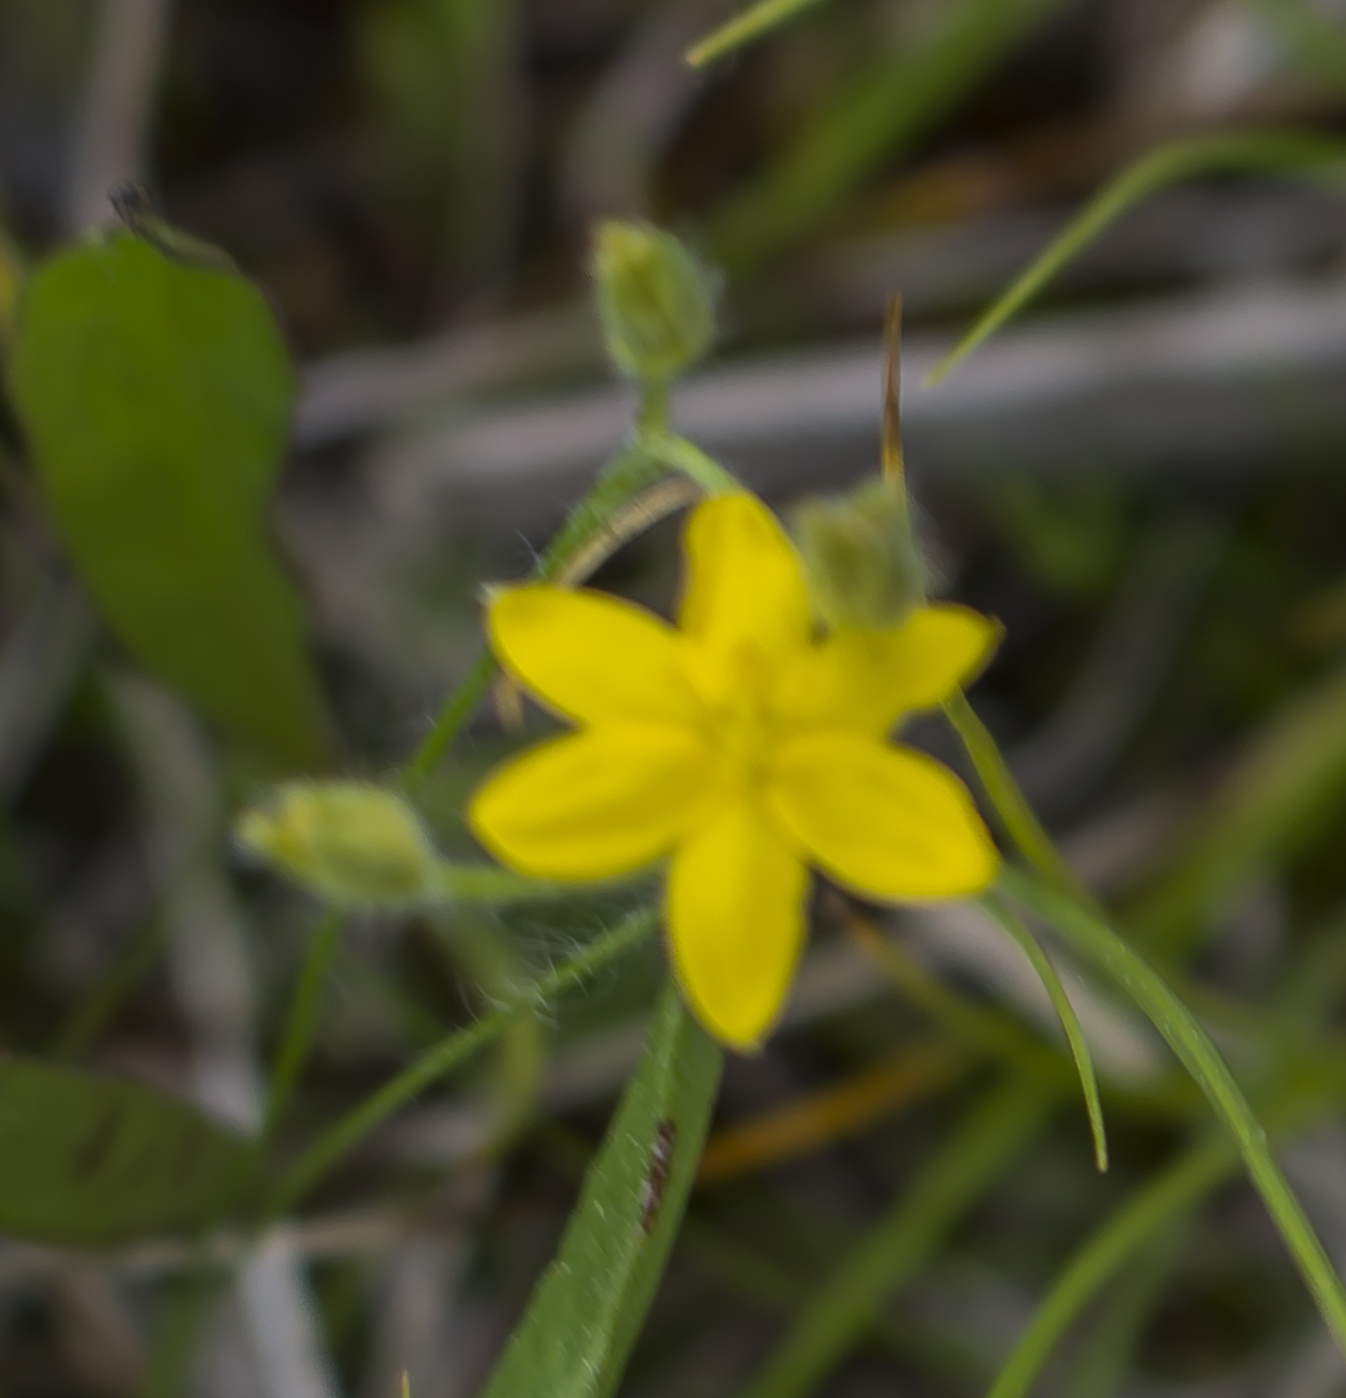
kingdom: Plantae
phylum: Tracheophyta
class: Liliopsida
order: Asparagales
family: Hypoxidaceae
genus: Hypoxis
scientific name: Hypoxis hirsuta
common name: Common goldstar
